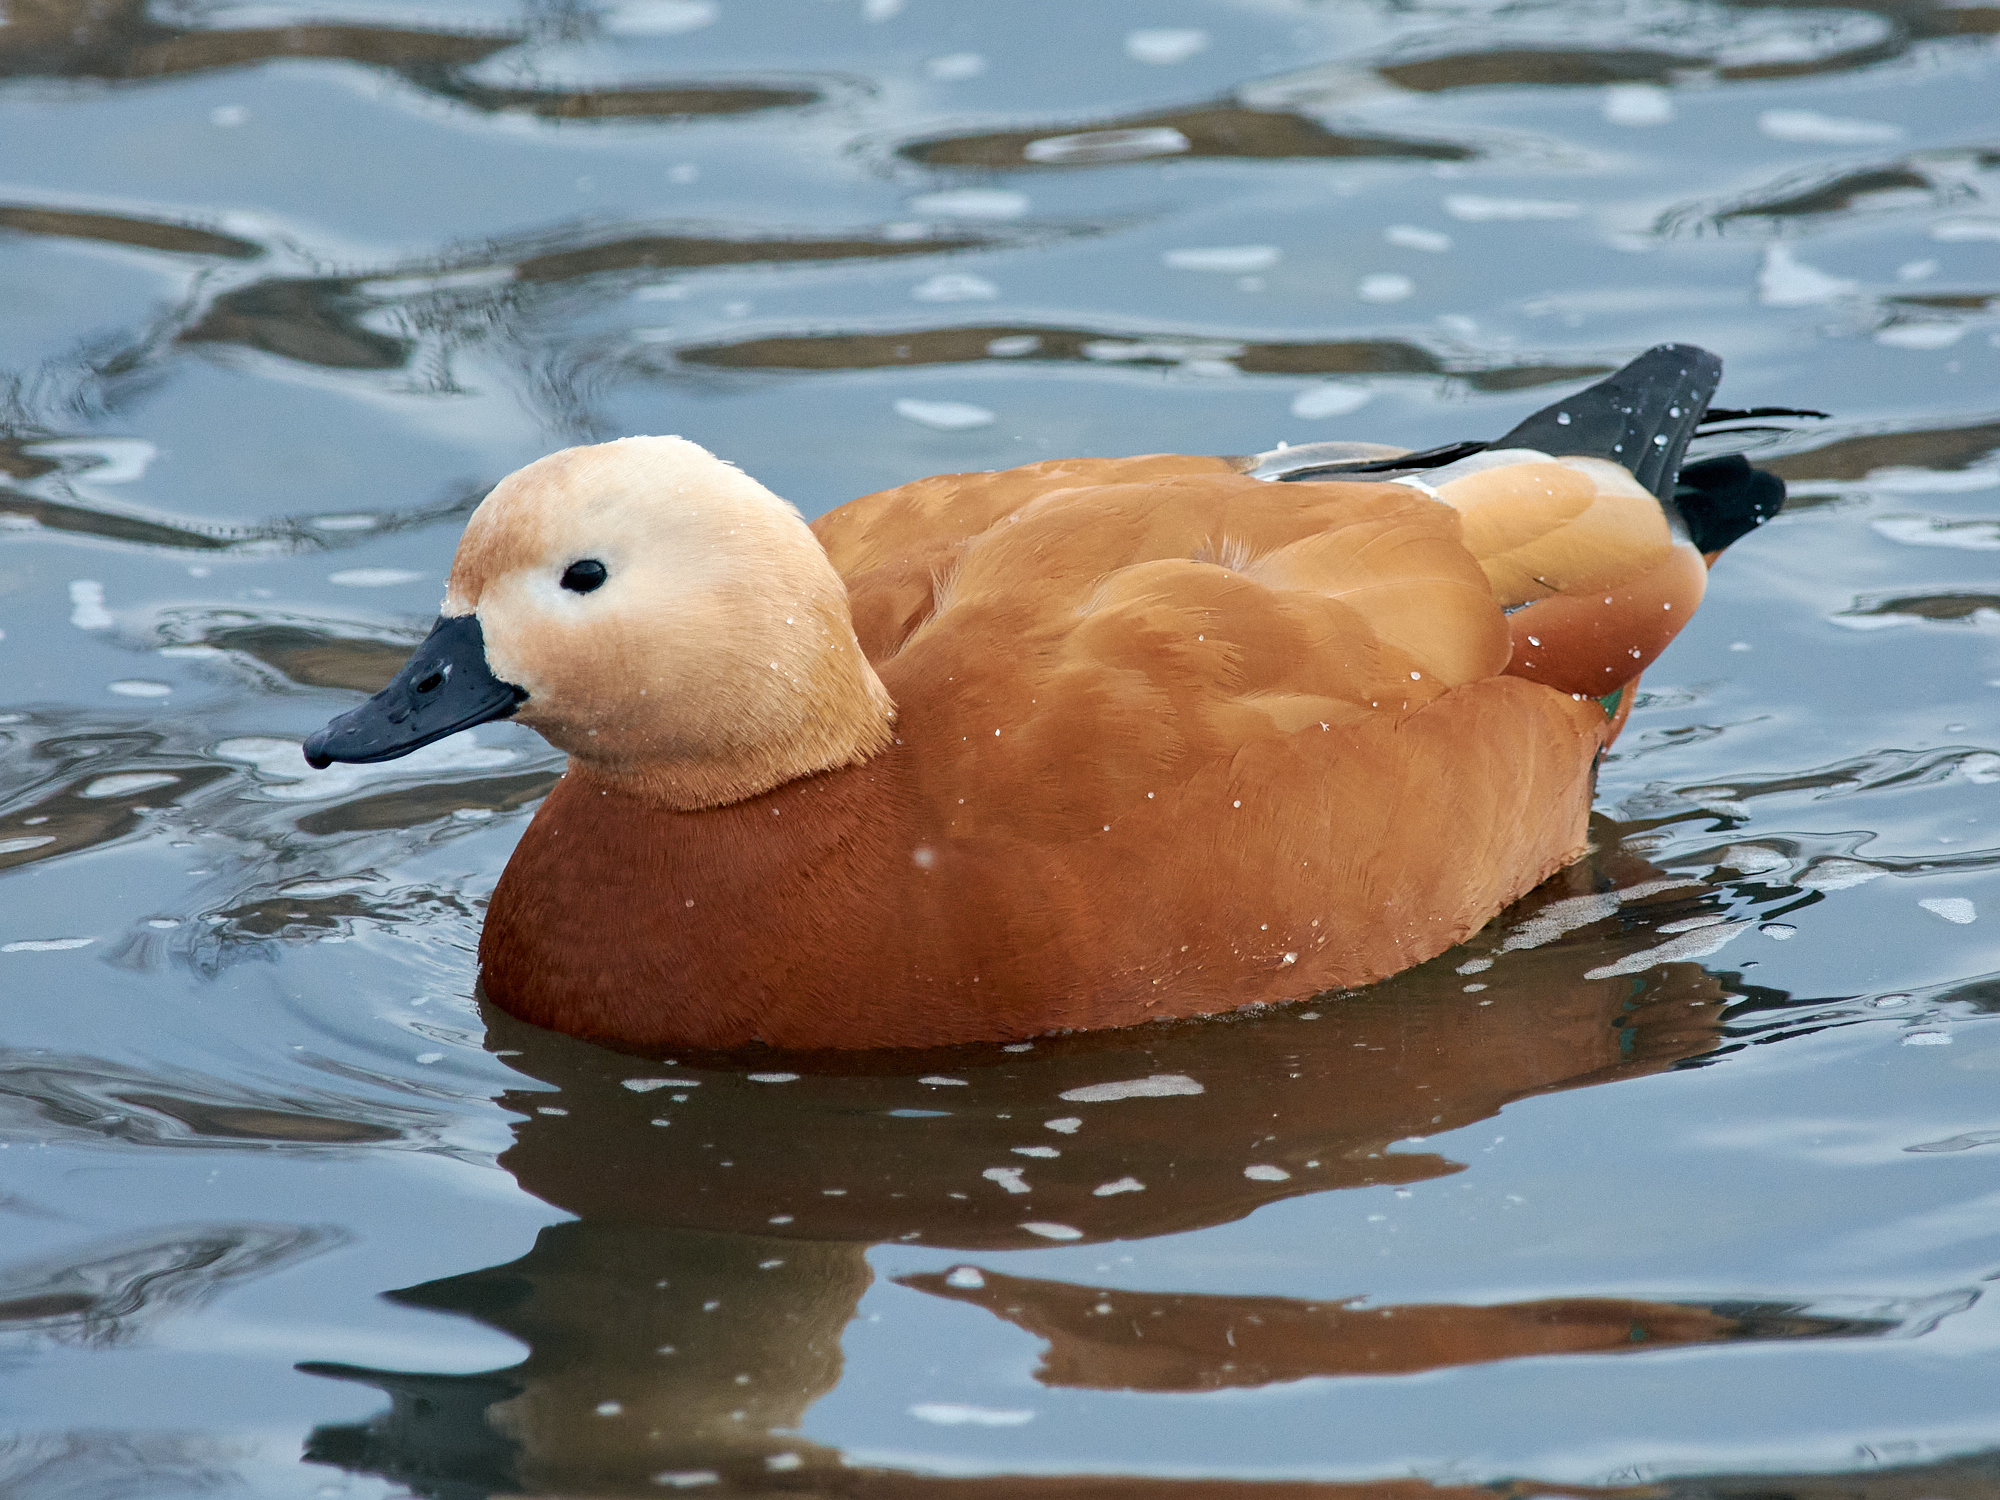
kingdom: Animalia
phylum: Chordata
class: Aves
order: Anseriformes
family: Anatidae
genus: Tadorna
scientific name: Tadorna ferruginea
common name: Ruddy shelduck
